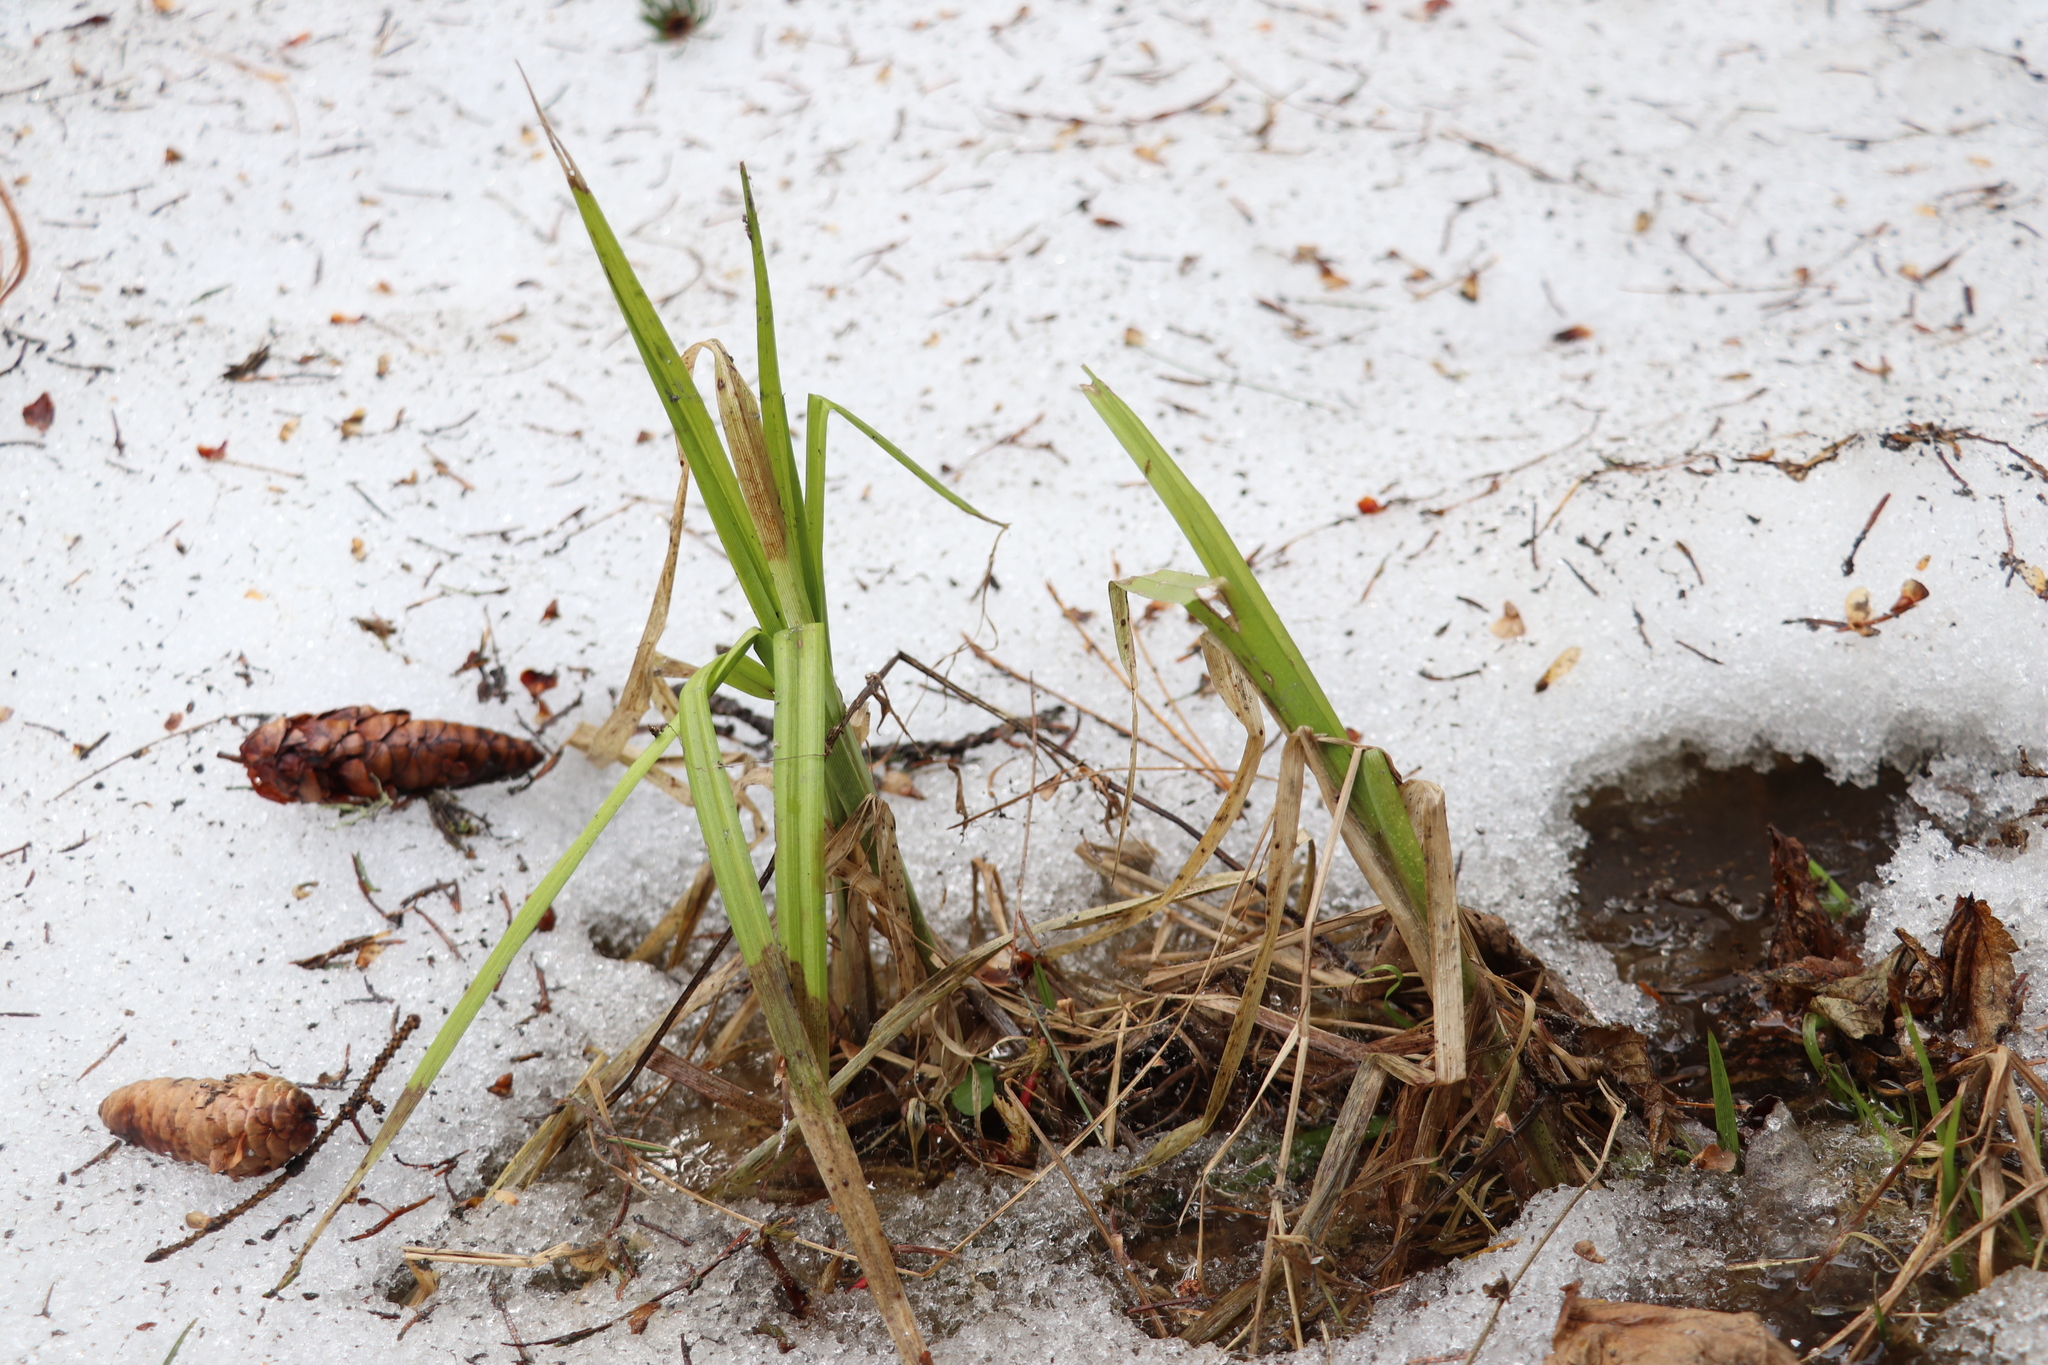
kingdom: Plantae
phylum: Tracheophyta
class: Liliopsida
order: Poales
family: Cyperaceae
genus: Scirpus
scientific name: Scirpus sylvaticus
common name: Wood club-rush
